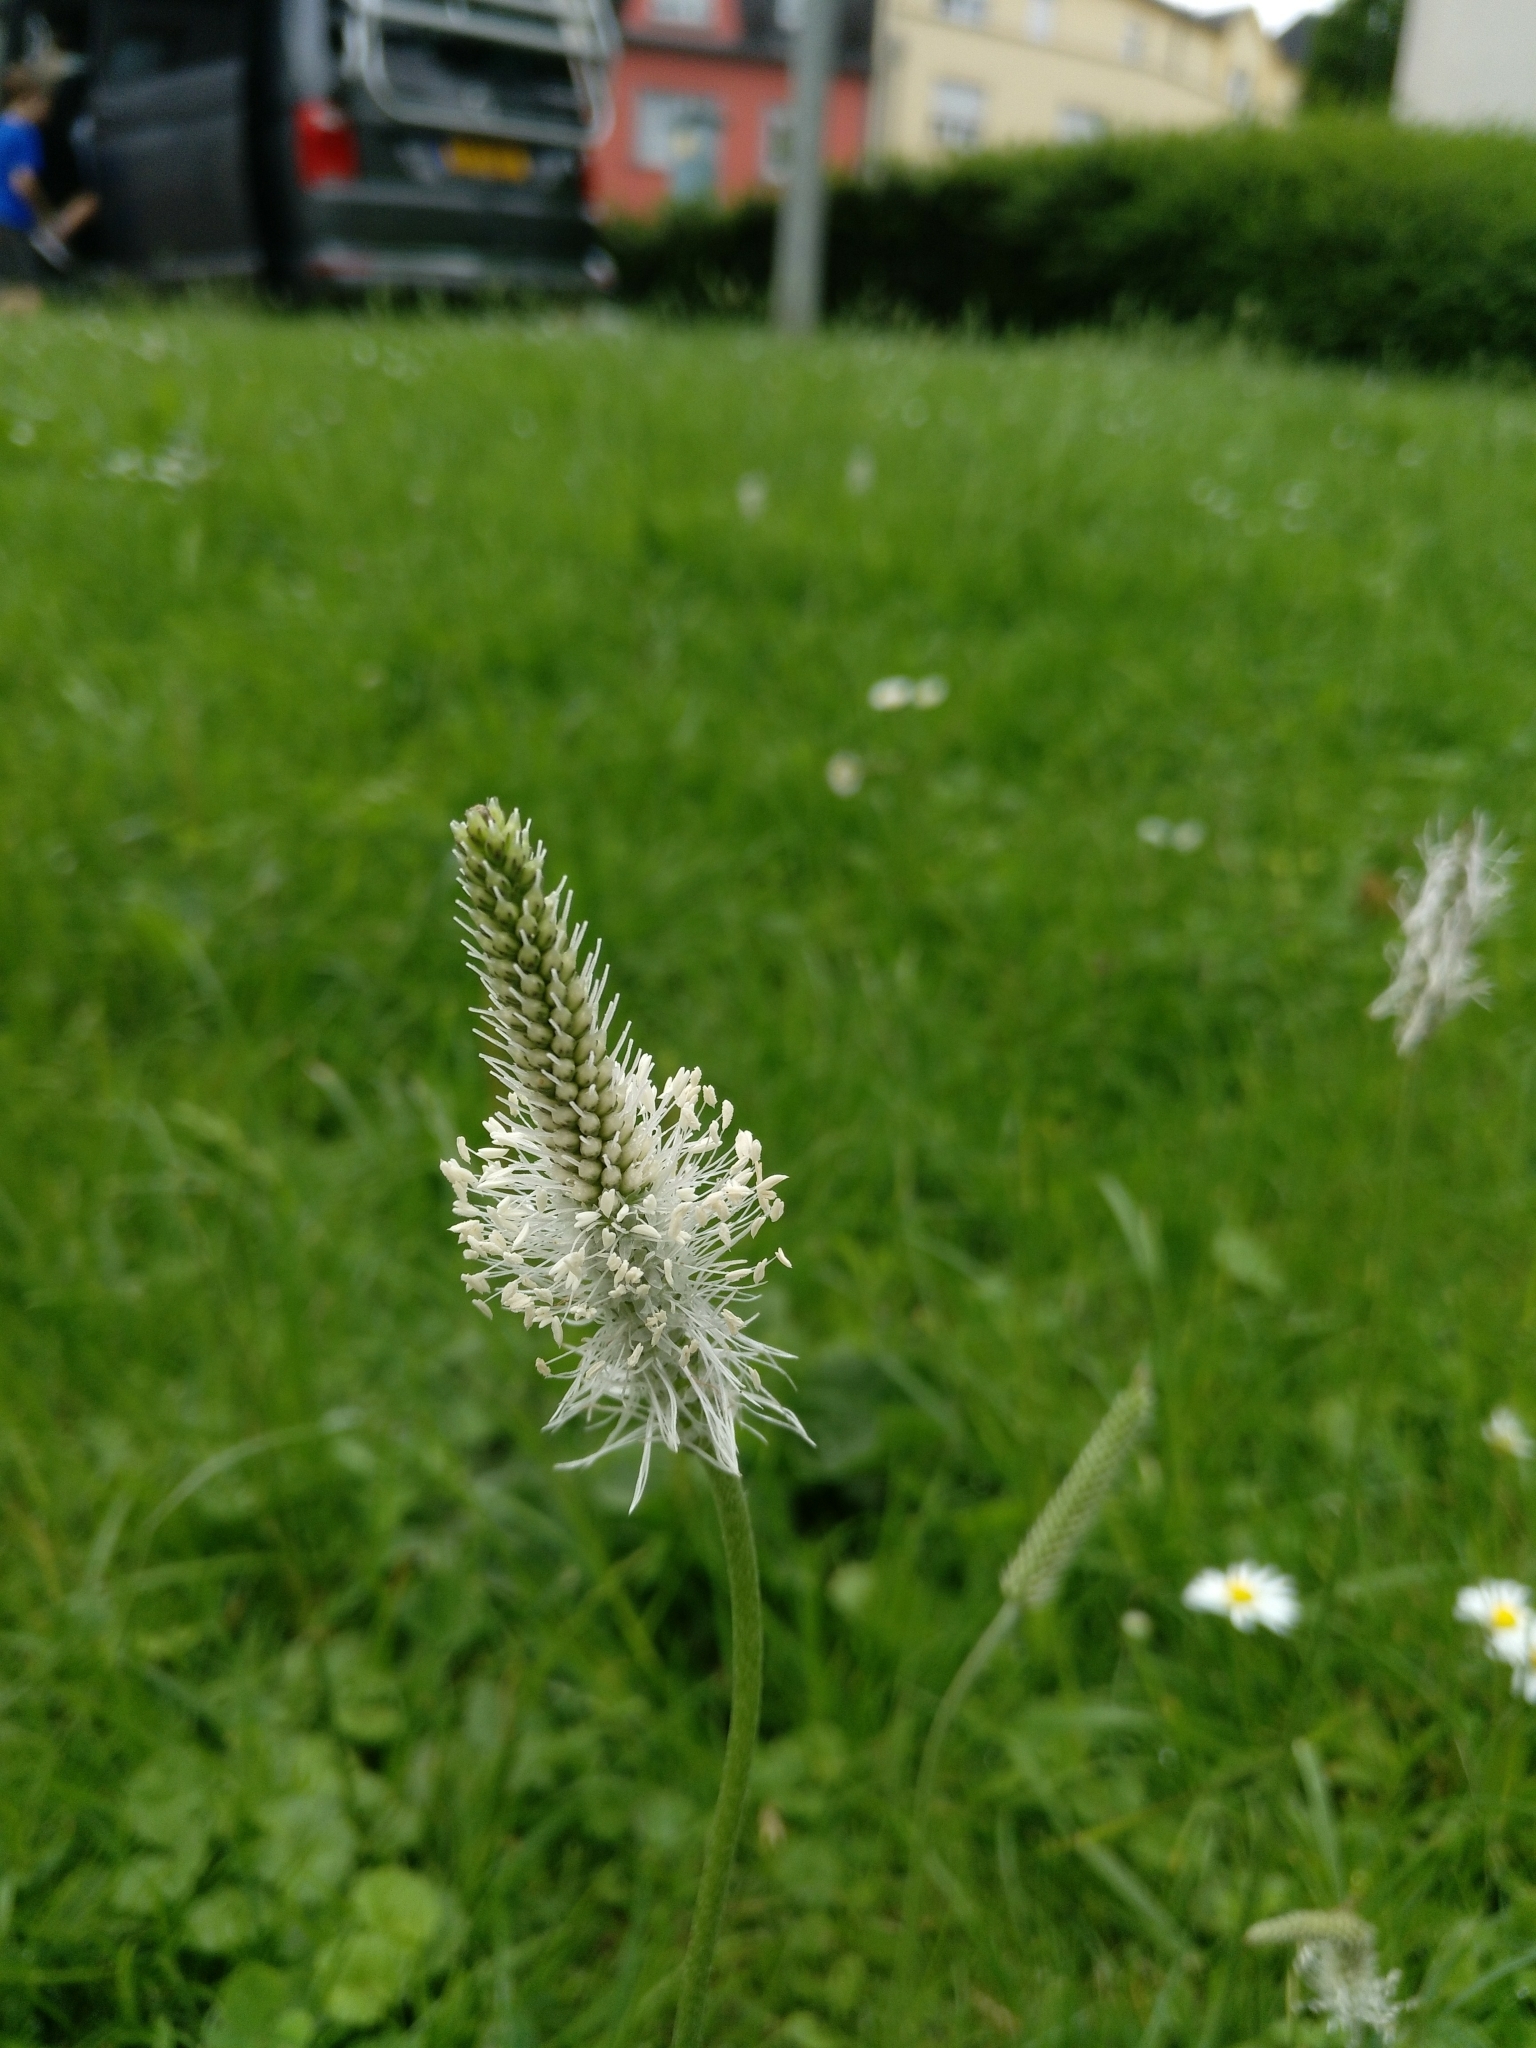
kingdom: Plantae
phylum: Tracheophyta
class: Magnoliopsida
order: Lamiales
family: Plantaginaceae
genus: Plantago
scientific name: Plantago media
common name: Hoary plantain
